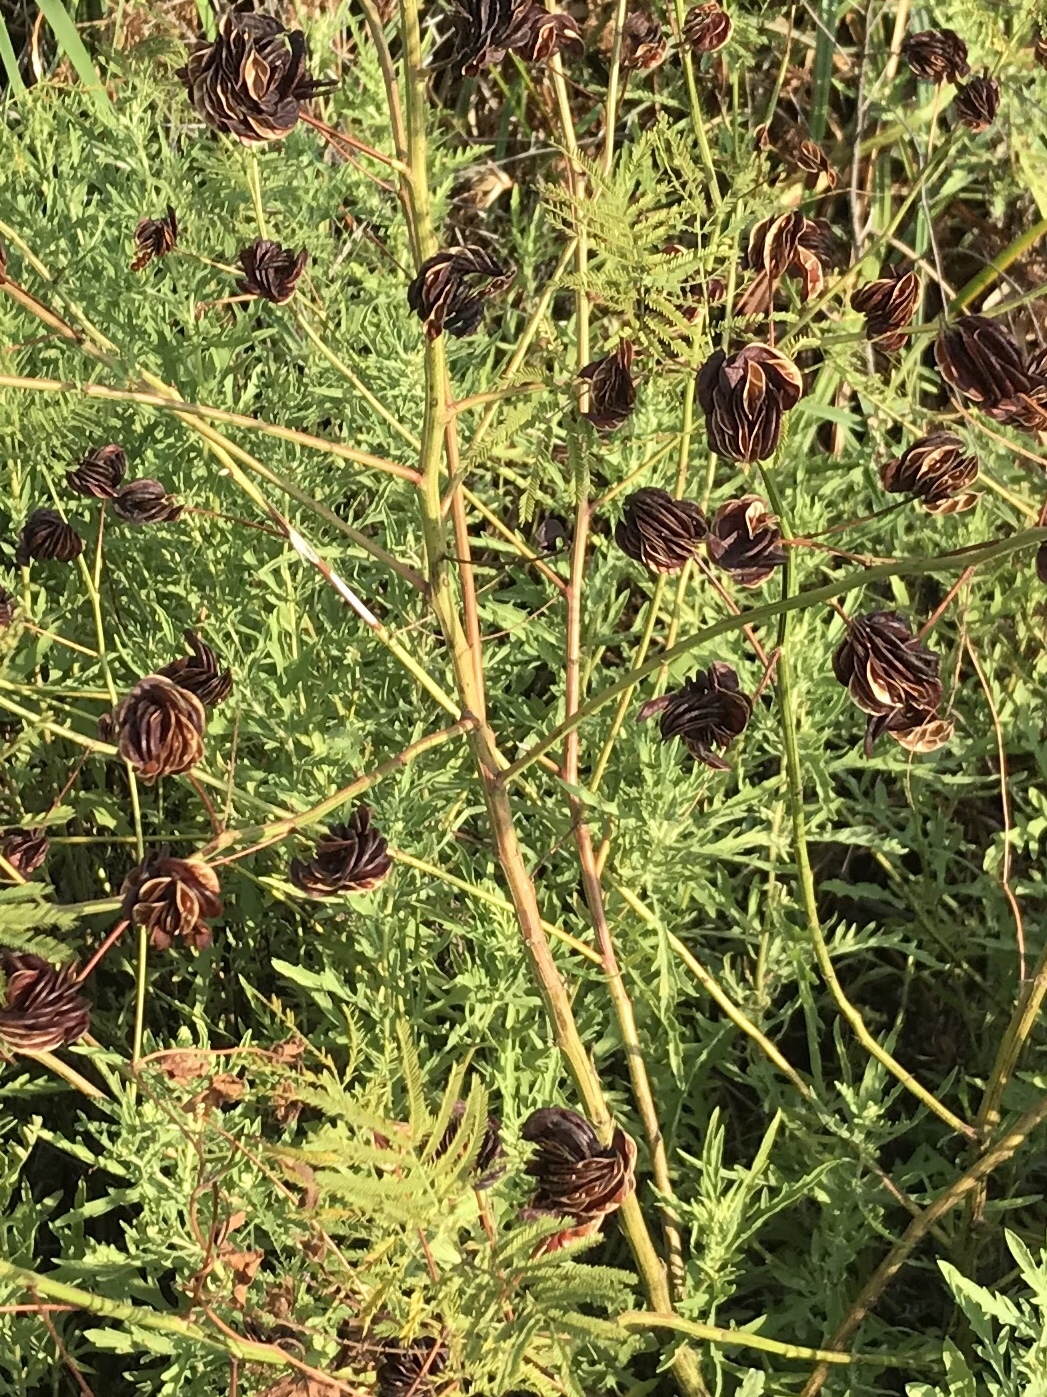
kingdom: Plantae
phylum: Tracheophyta
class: Magnoliopsida
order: Fabales
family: Fabaceae
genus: Desmanthus
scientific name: Desmanthus illinoensis
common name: Illinois bundle-flower
